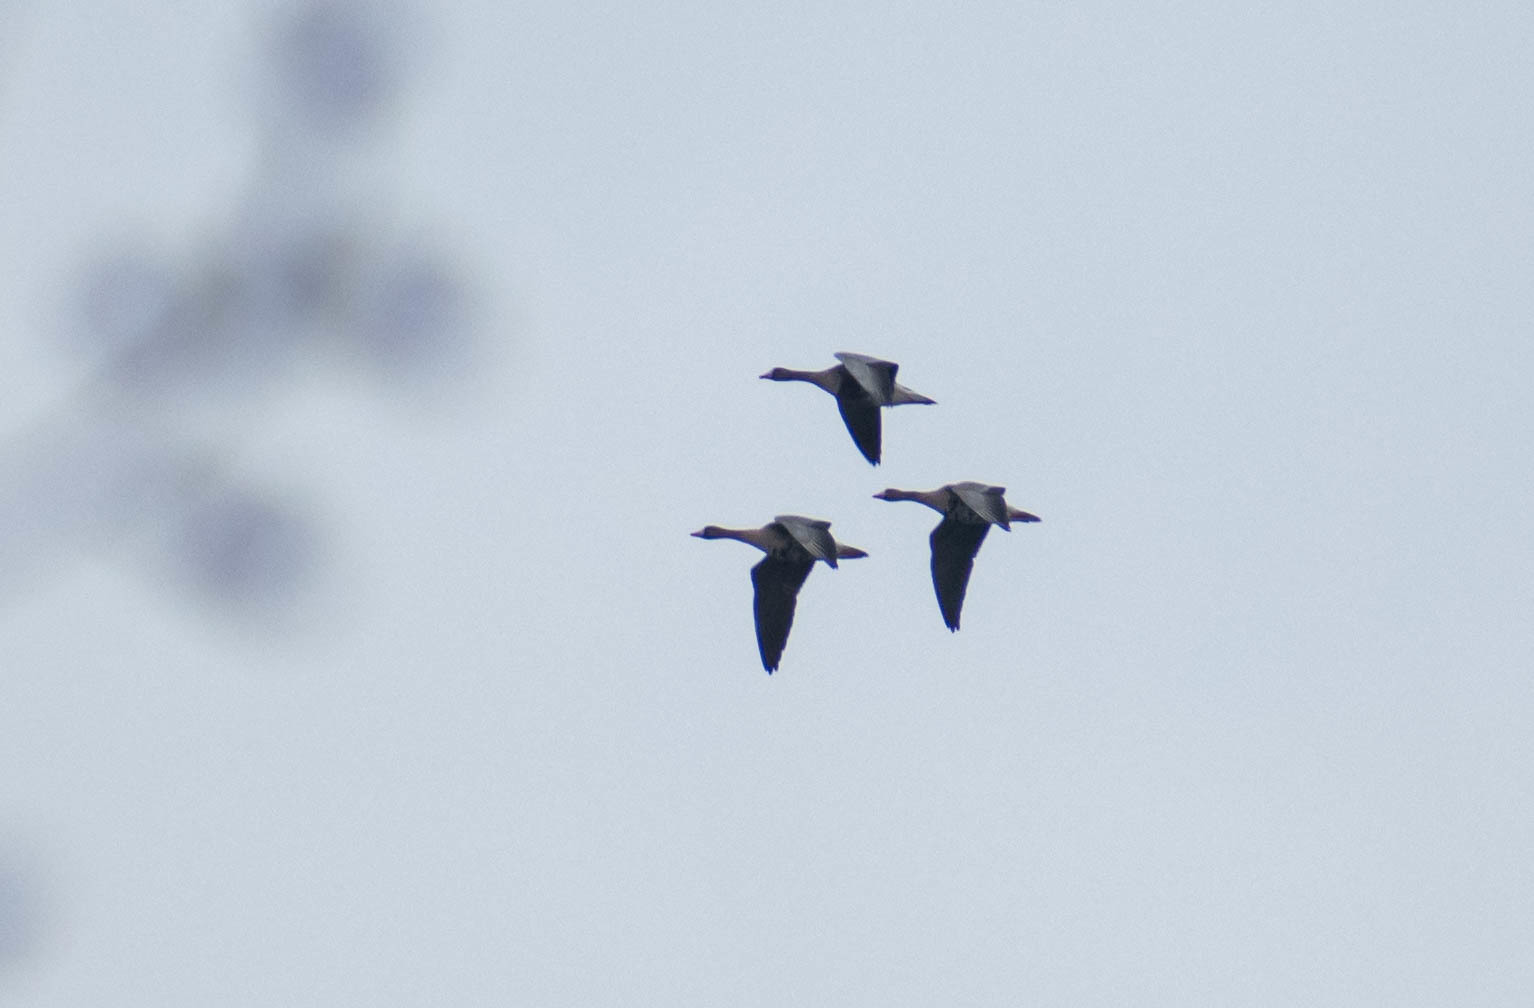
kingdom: Animalia
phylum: Chordata
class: Aves
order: Anseriformes
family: Anatidae
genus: Anser
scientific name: Anser albifrons
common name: Greater white-fronted goose
